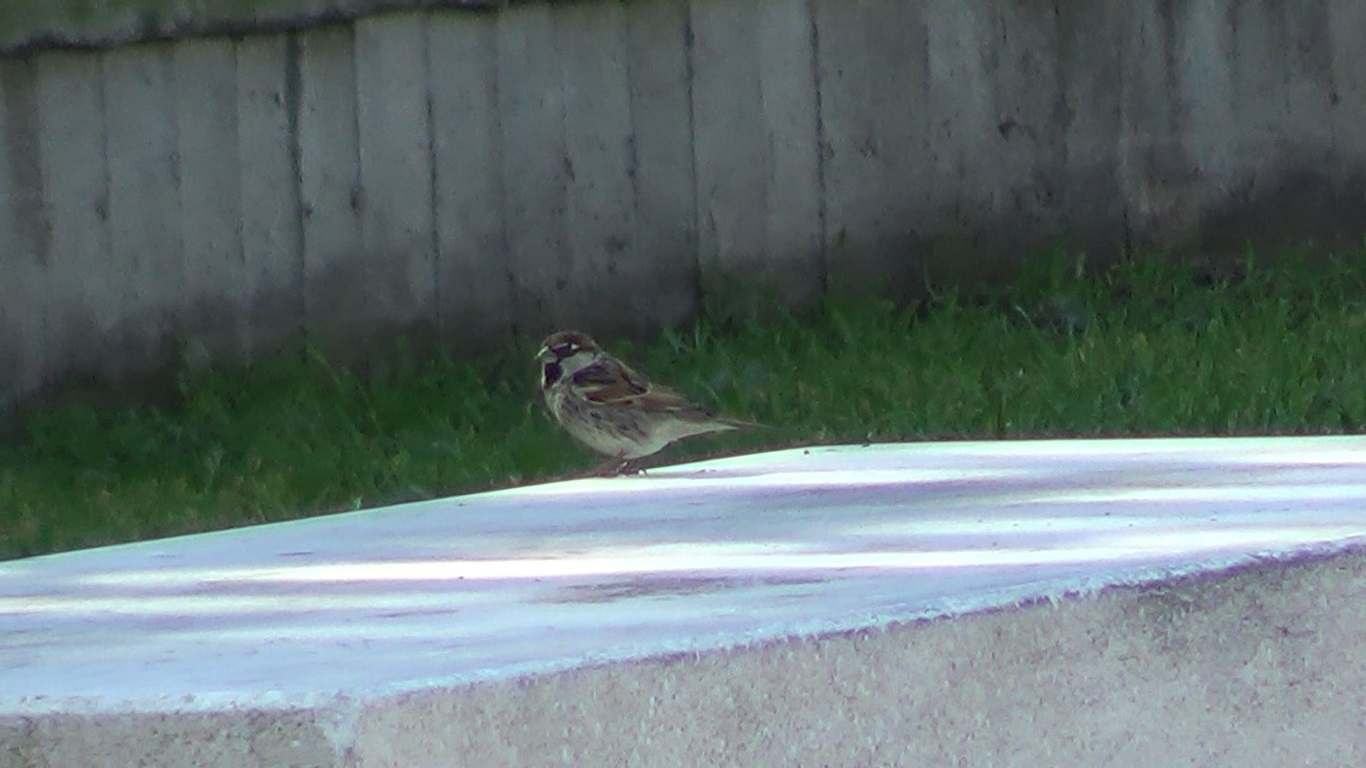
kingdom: Animalia
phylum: Chordata
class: Aves
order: Passeriformes
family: Passeridae
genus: Passer
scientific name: Passer hispaniolensis
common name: Spanish sparrow
